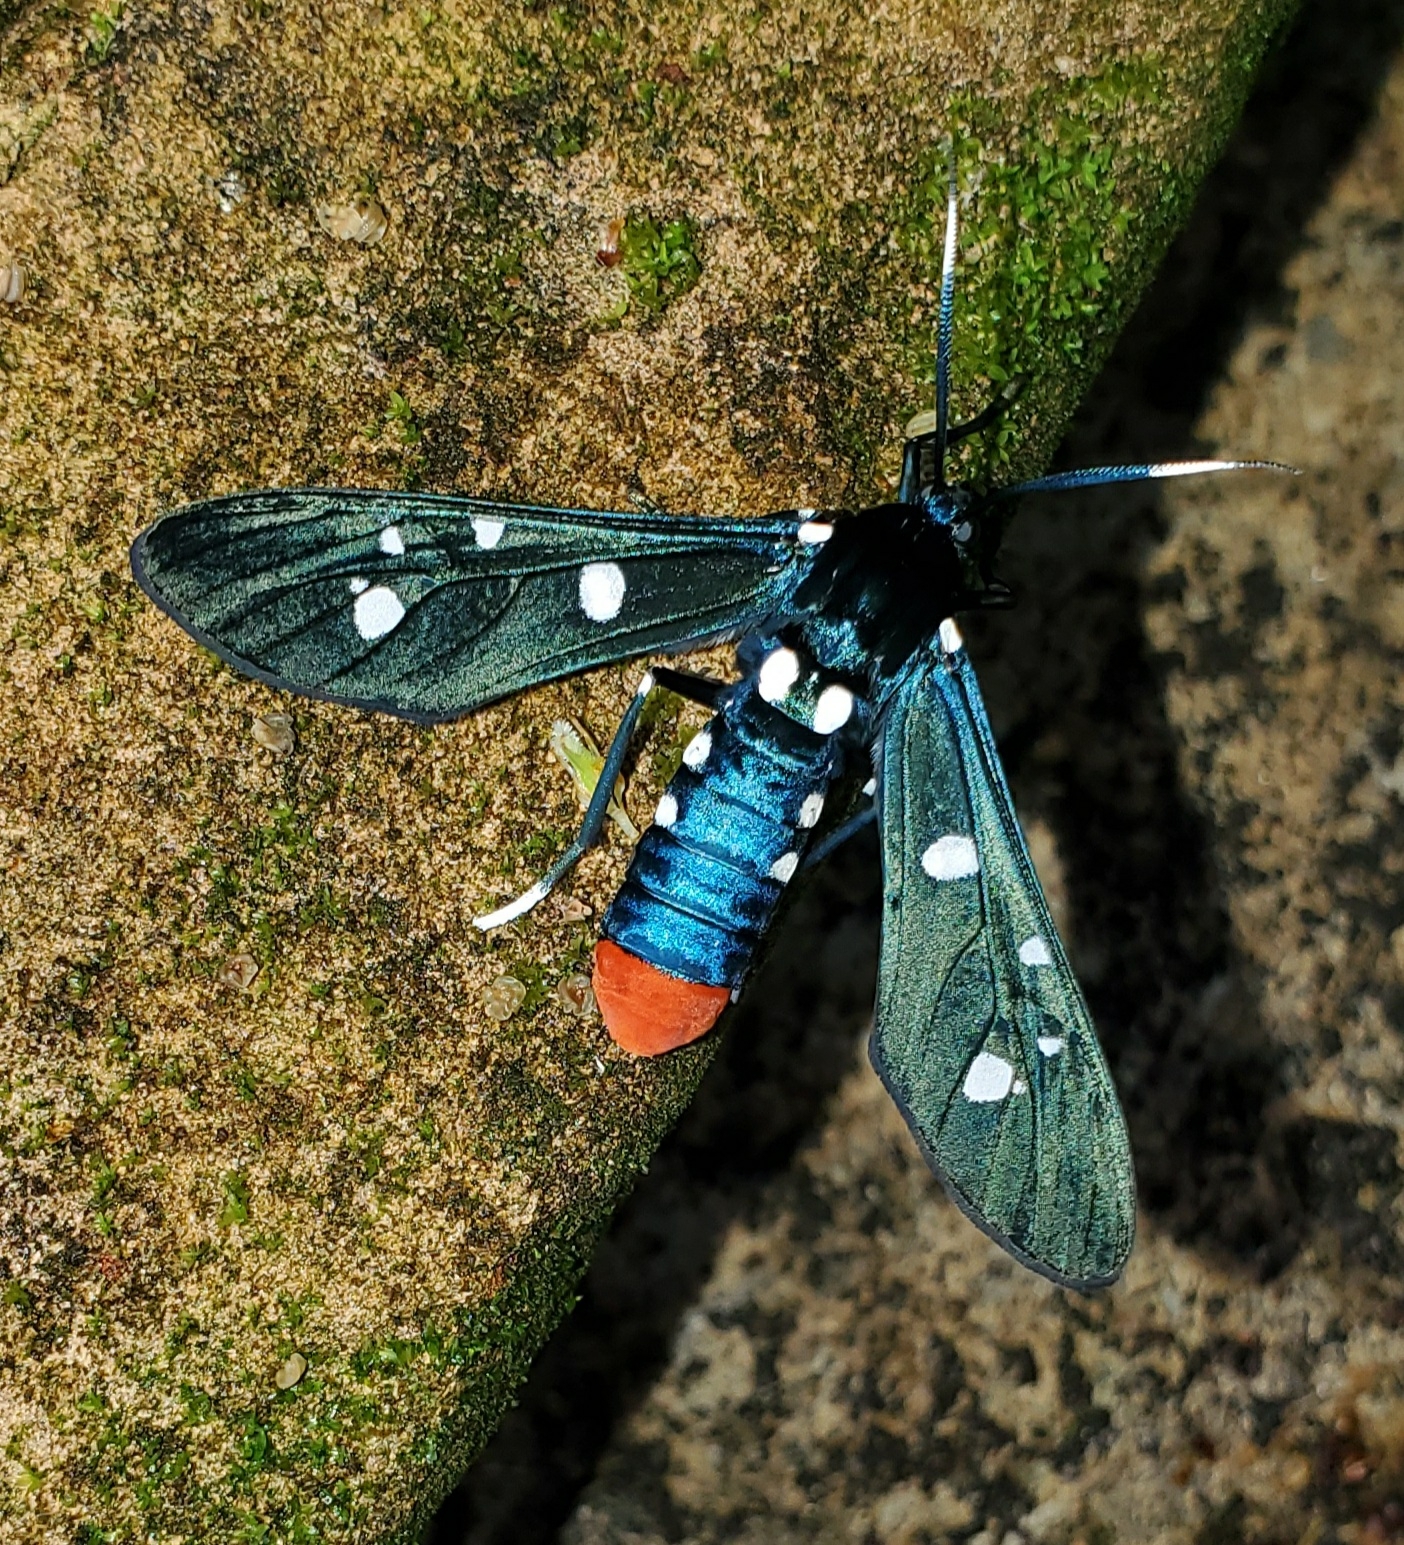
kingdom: Animalia
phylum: Arthropoda
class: Insecta
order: Lepidoptera
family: Erebidae
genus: Syntomeida
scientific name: Syntomeida epilais
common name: Polka-dot wasp moth
